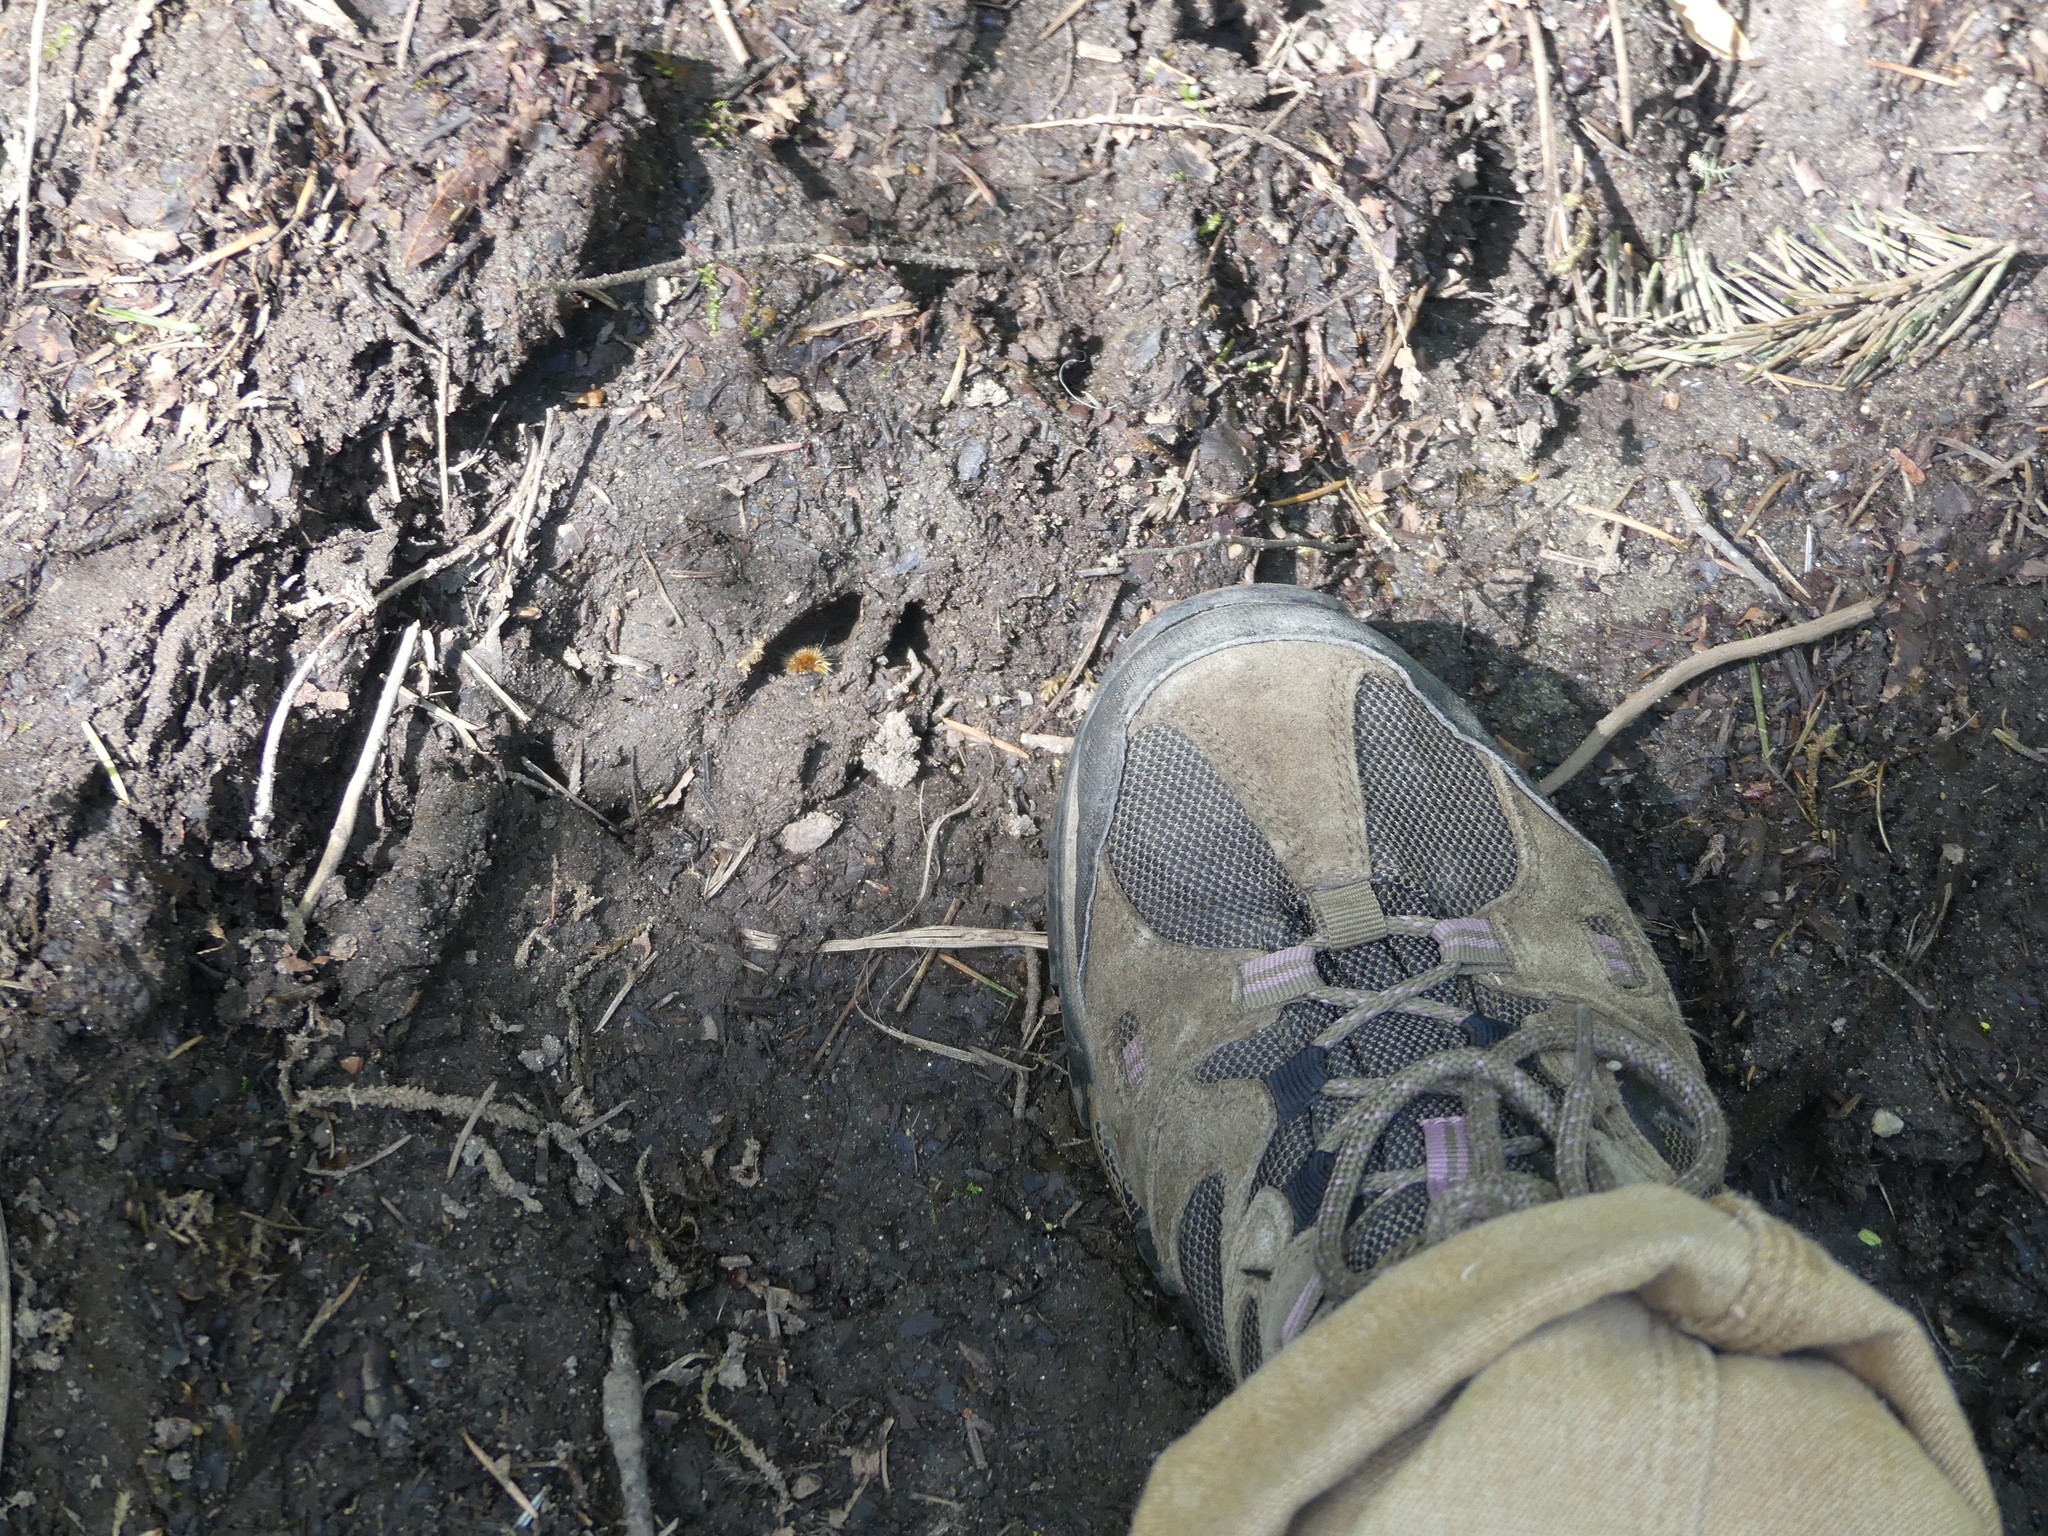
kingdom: Animalia
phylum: Chordata
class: Mammalia
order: Artiodactyla
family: Cervidae
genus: Odocoileus
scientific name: Odocoileus hemionus
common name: Mule deer
